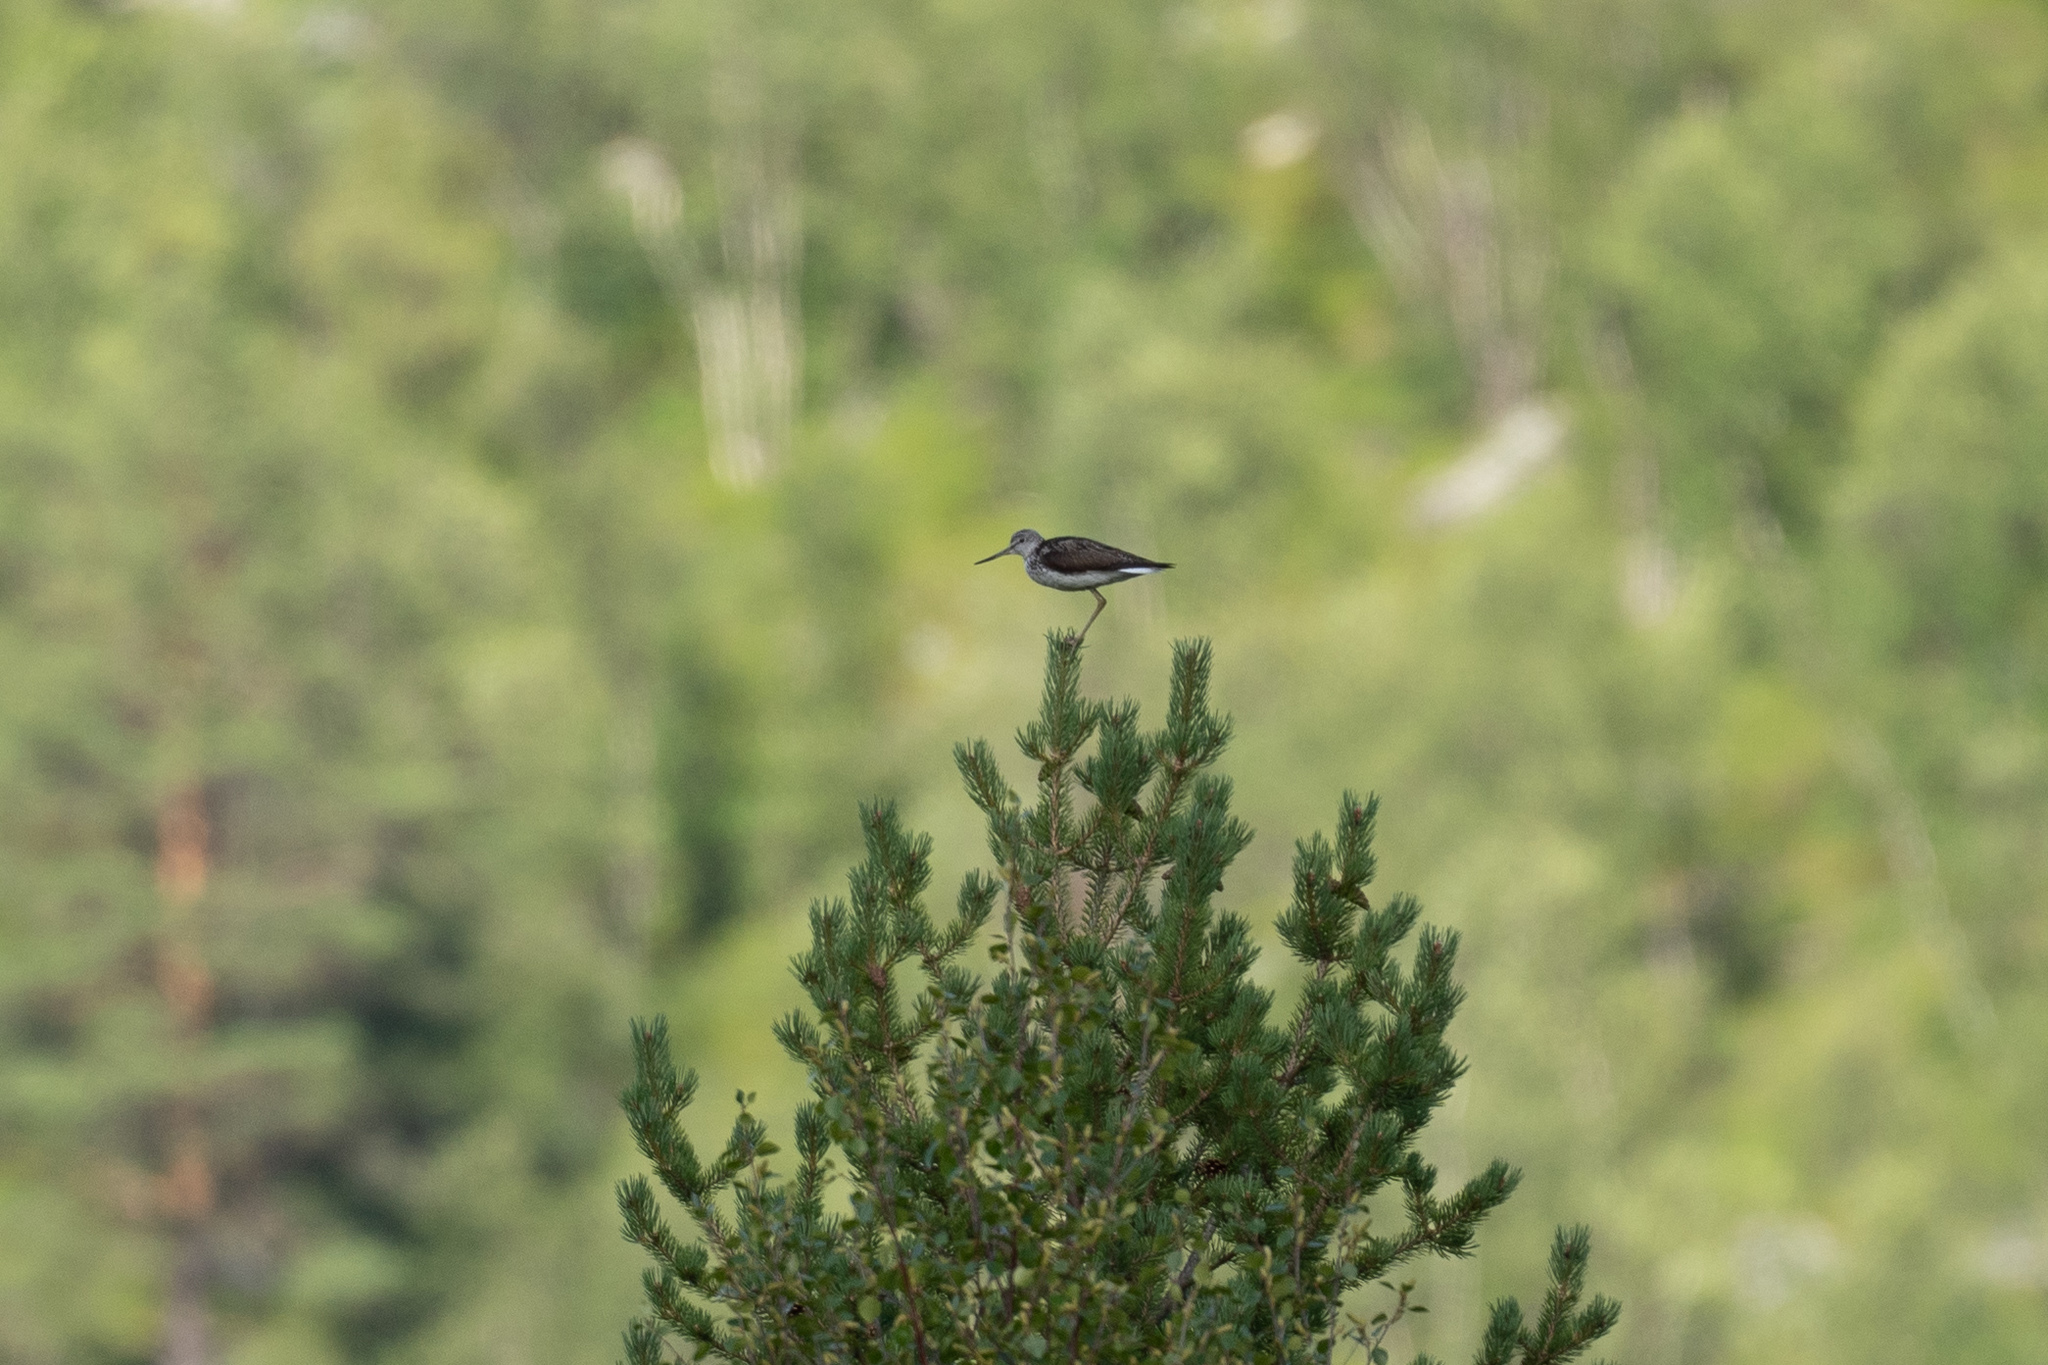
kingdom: Animalia
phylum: Chordata
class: Aves
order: Charadriiformes
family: Scolopacidae
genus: Tringa
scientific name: Tringa nebularia
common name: Common greenshank
